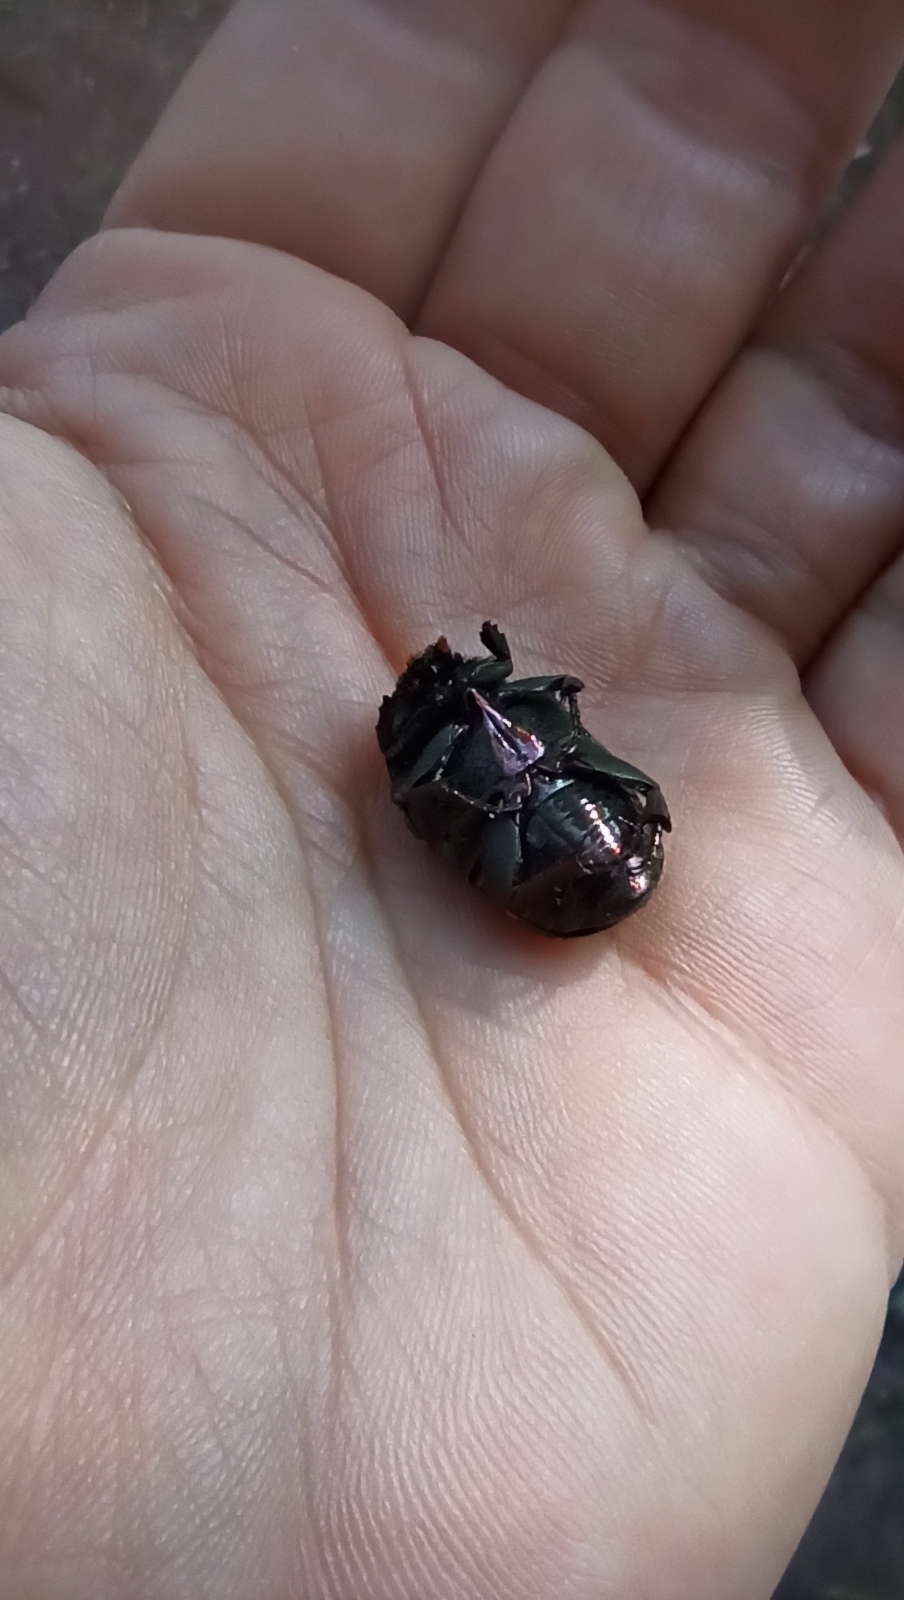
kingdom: Animalia
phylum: Arthropoda
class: Insecta
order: Coleoptera
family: Scarabaeidae
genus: Gymnetis
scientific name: Gymnetis chalcipes
